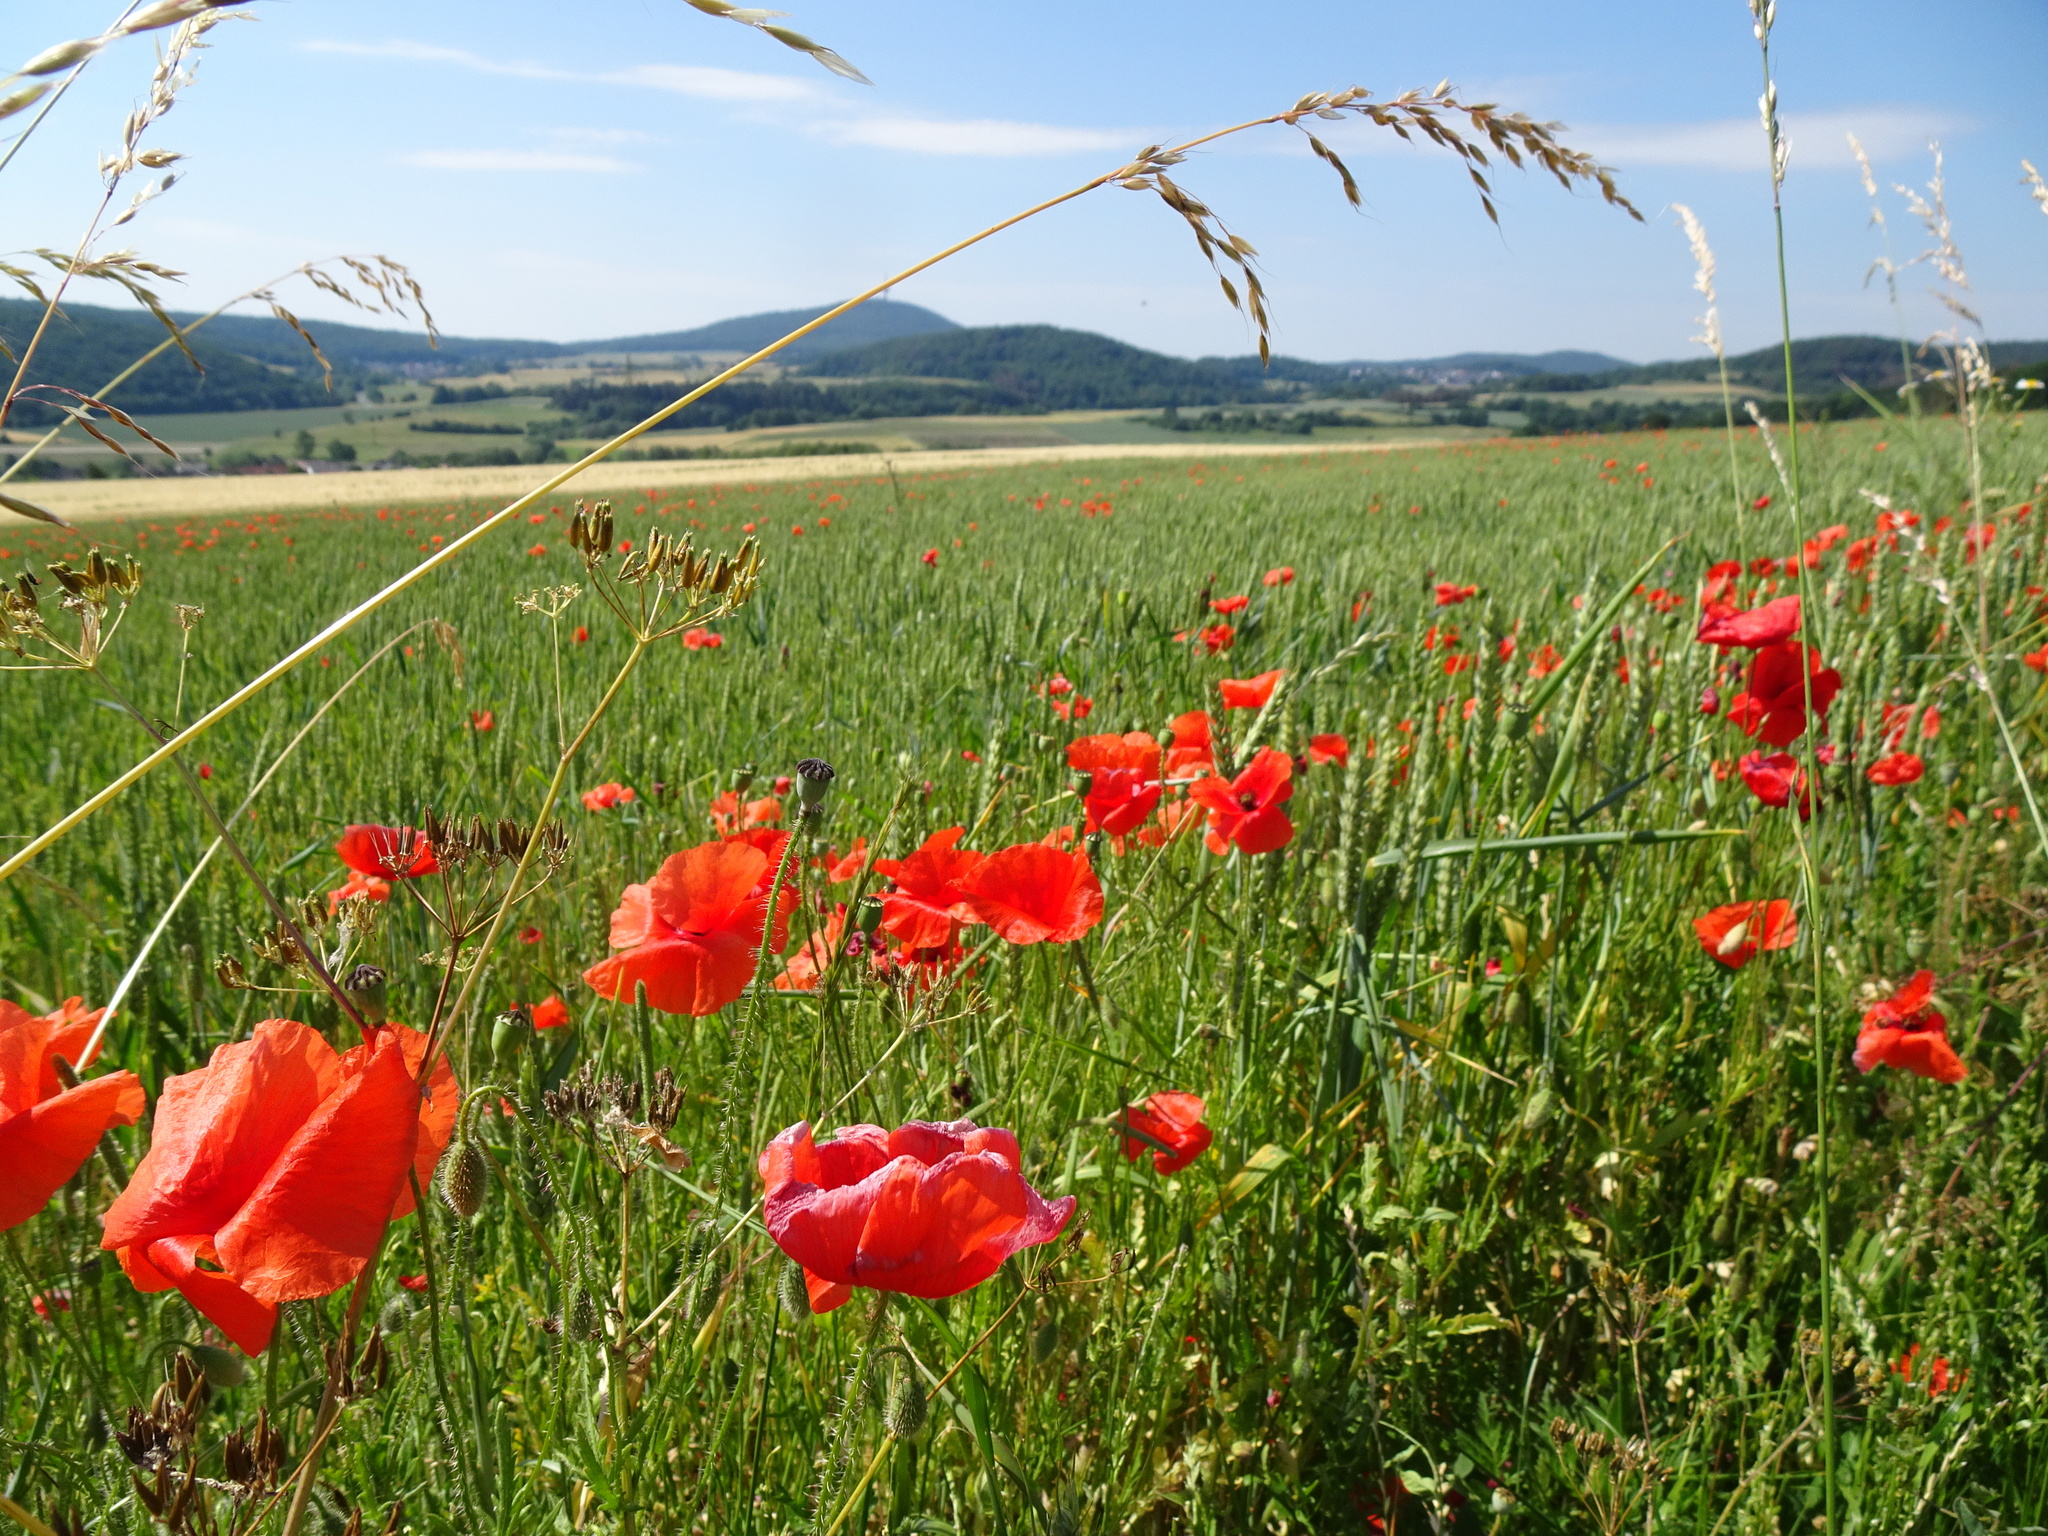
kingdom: Plantae
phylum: Tracheophyta
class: Magnoliopsida
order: Ranunculales
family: Papaveraceae
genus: Papaver
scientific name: Papaver rhoeas
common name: Corn poppy
